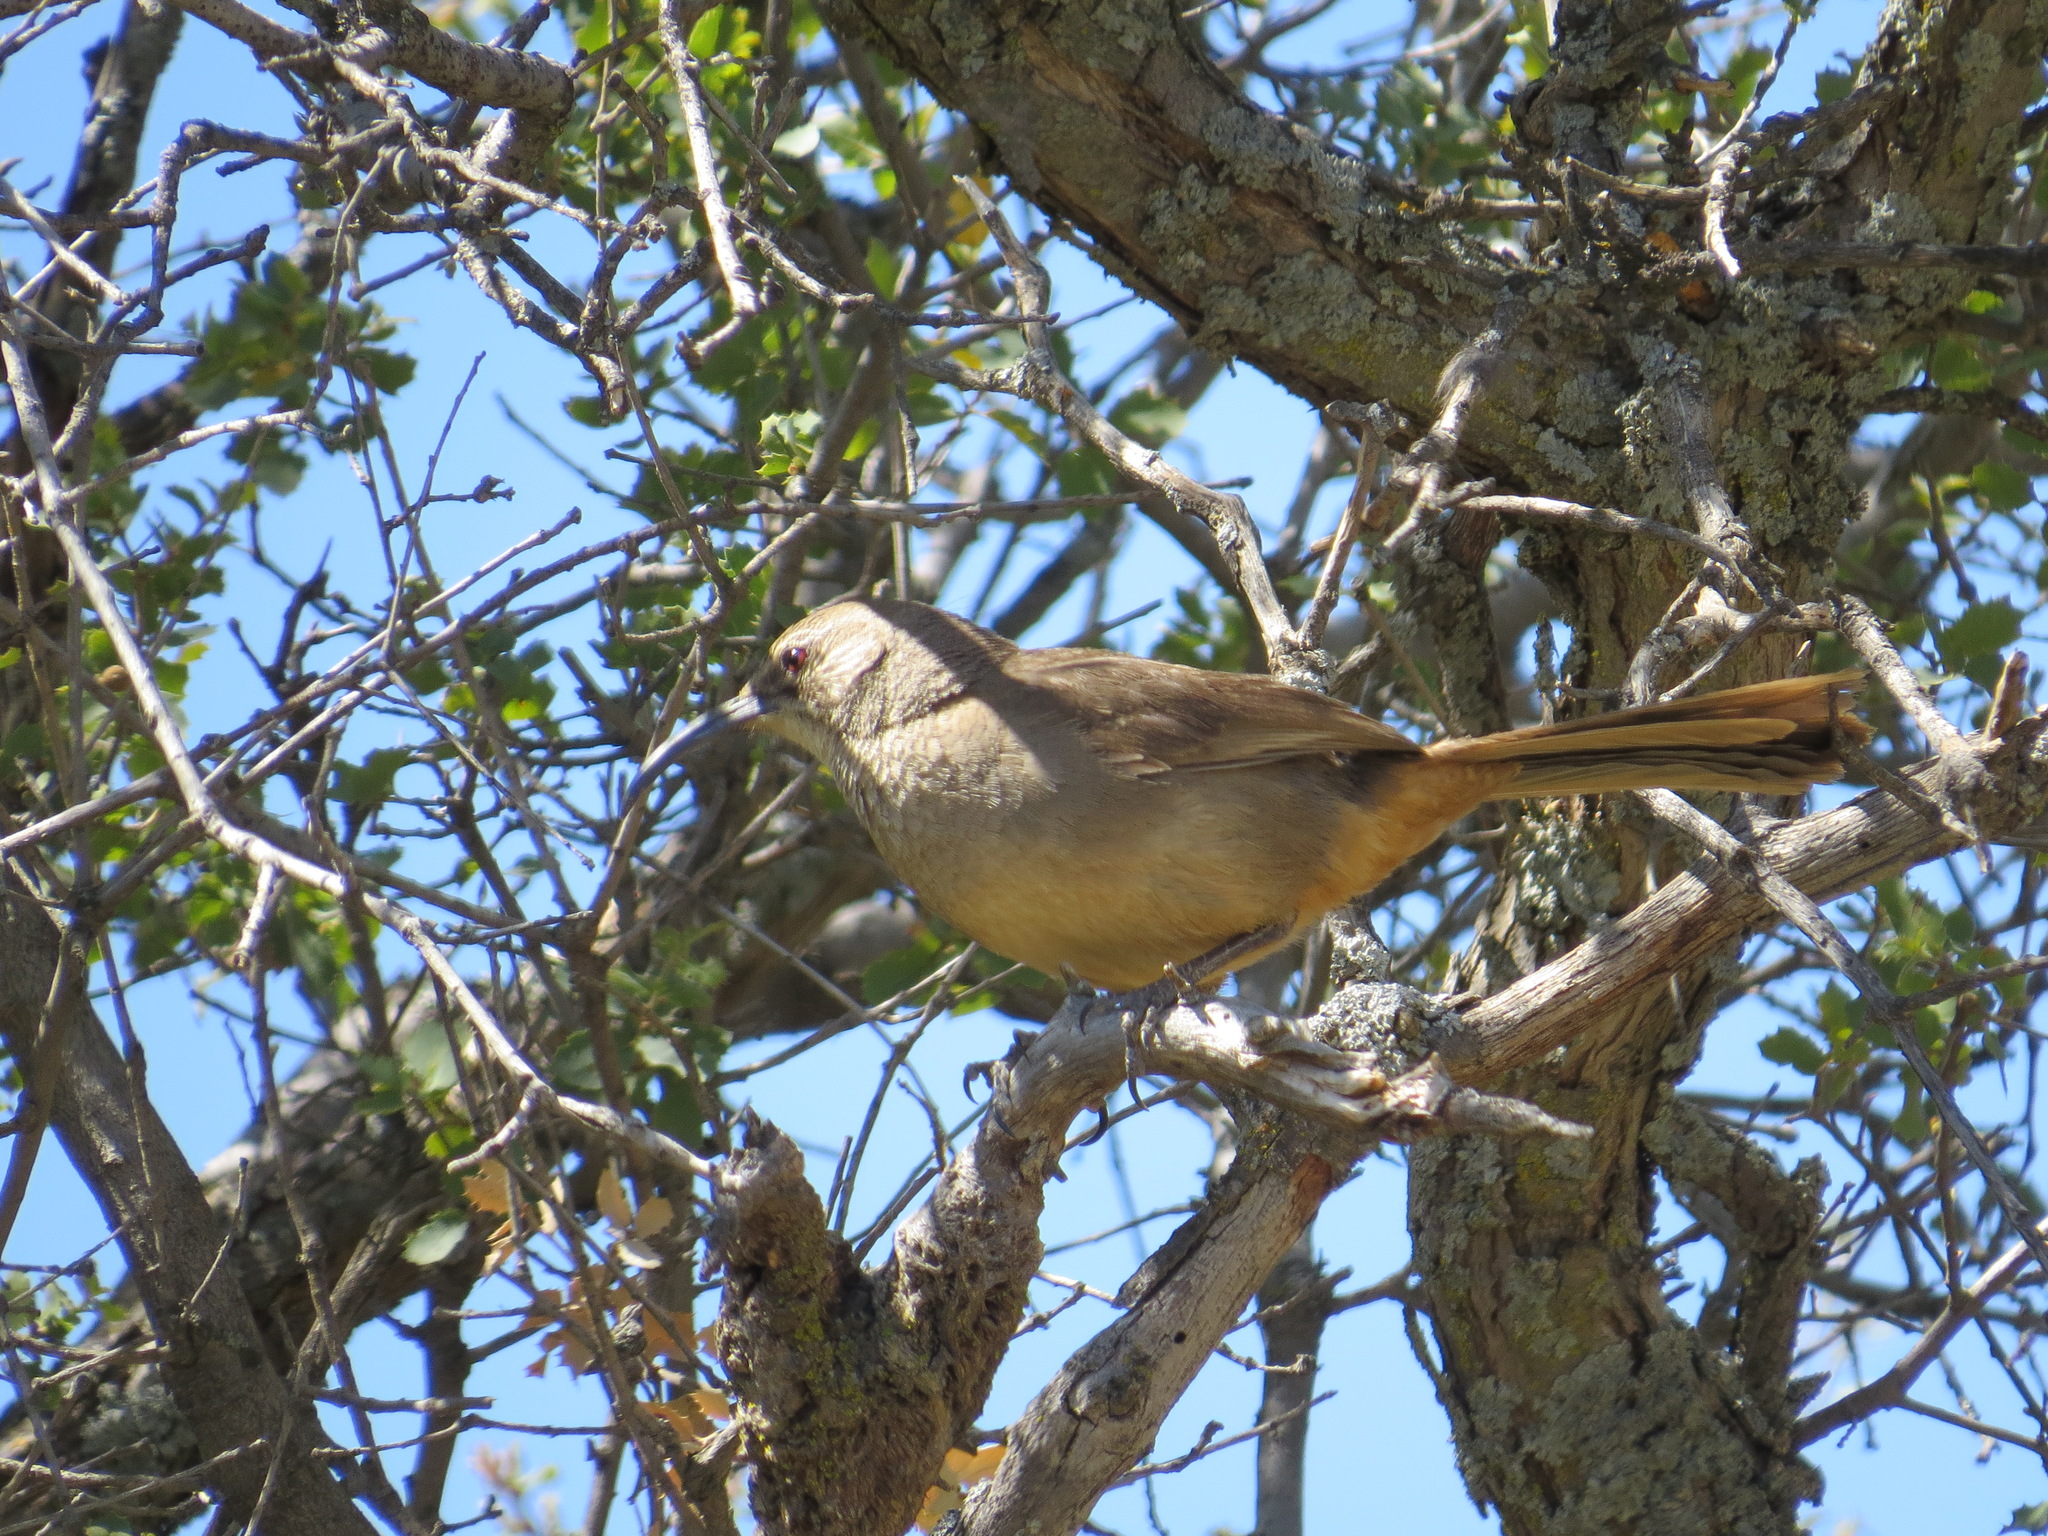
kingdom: Animalia
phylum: Chordata
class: Aves
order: Passeriformes
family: Mimidae
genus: Toxostoma
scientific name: Toxostoma redivivum
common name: California thrasher
